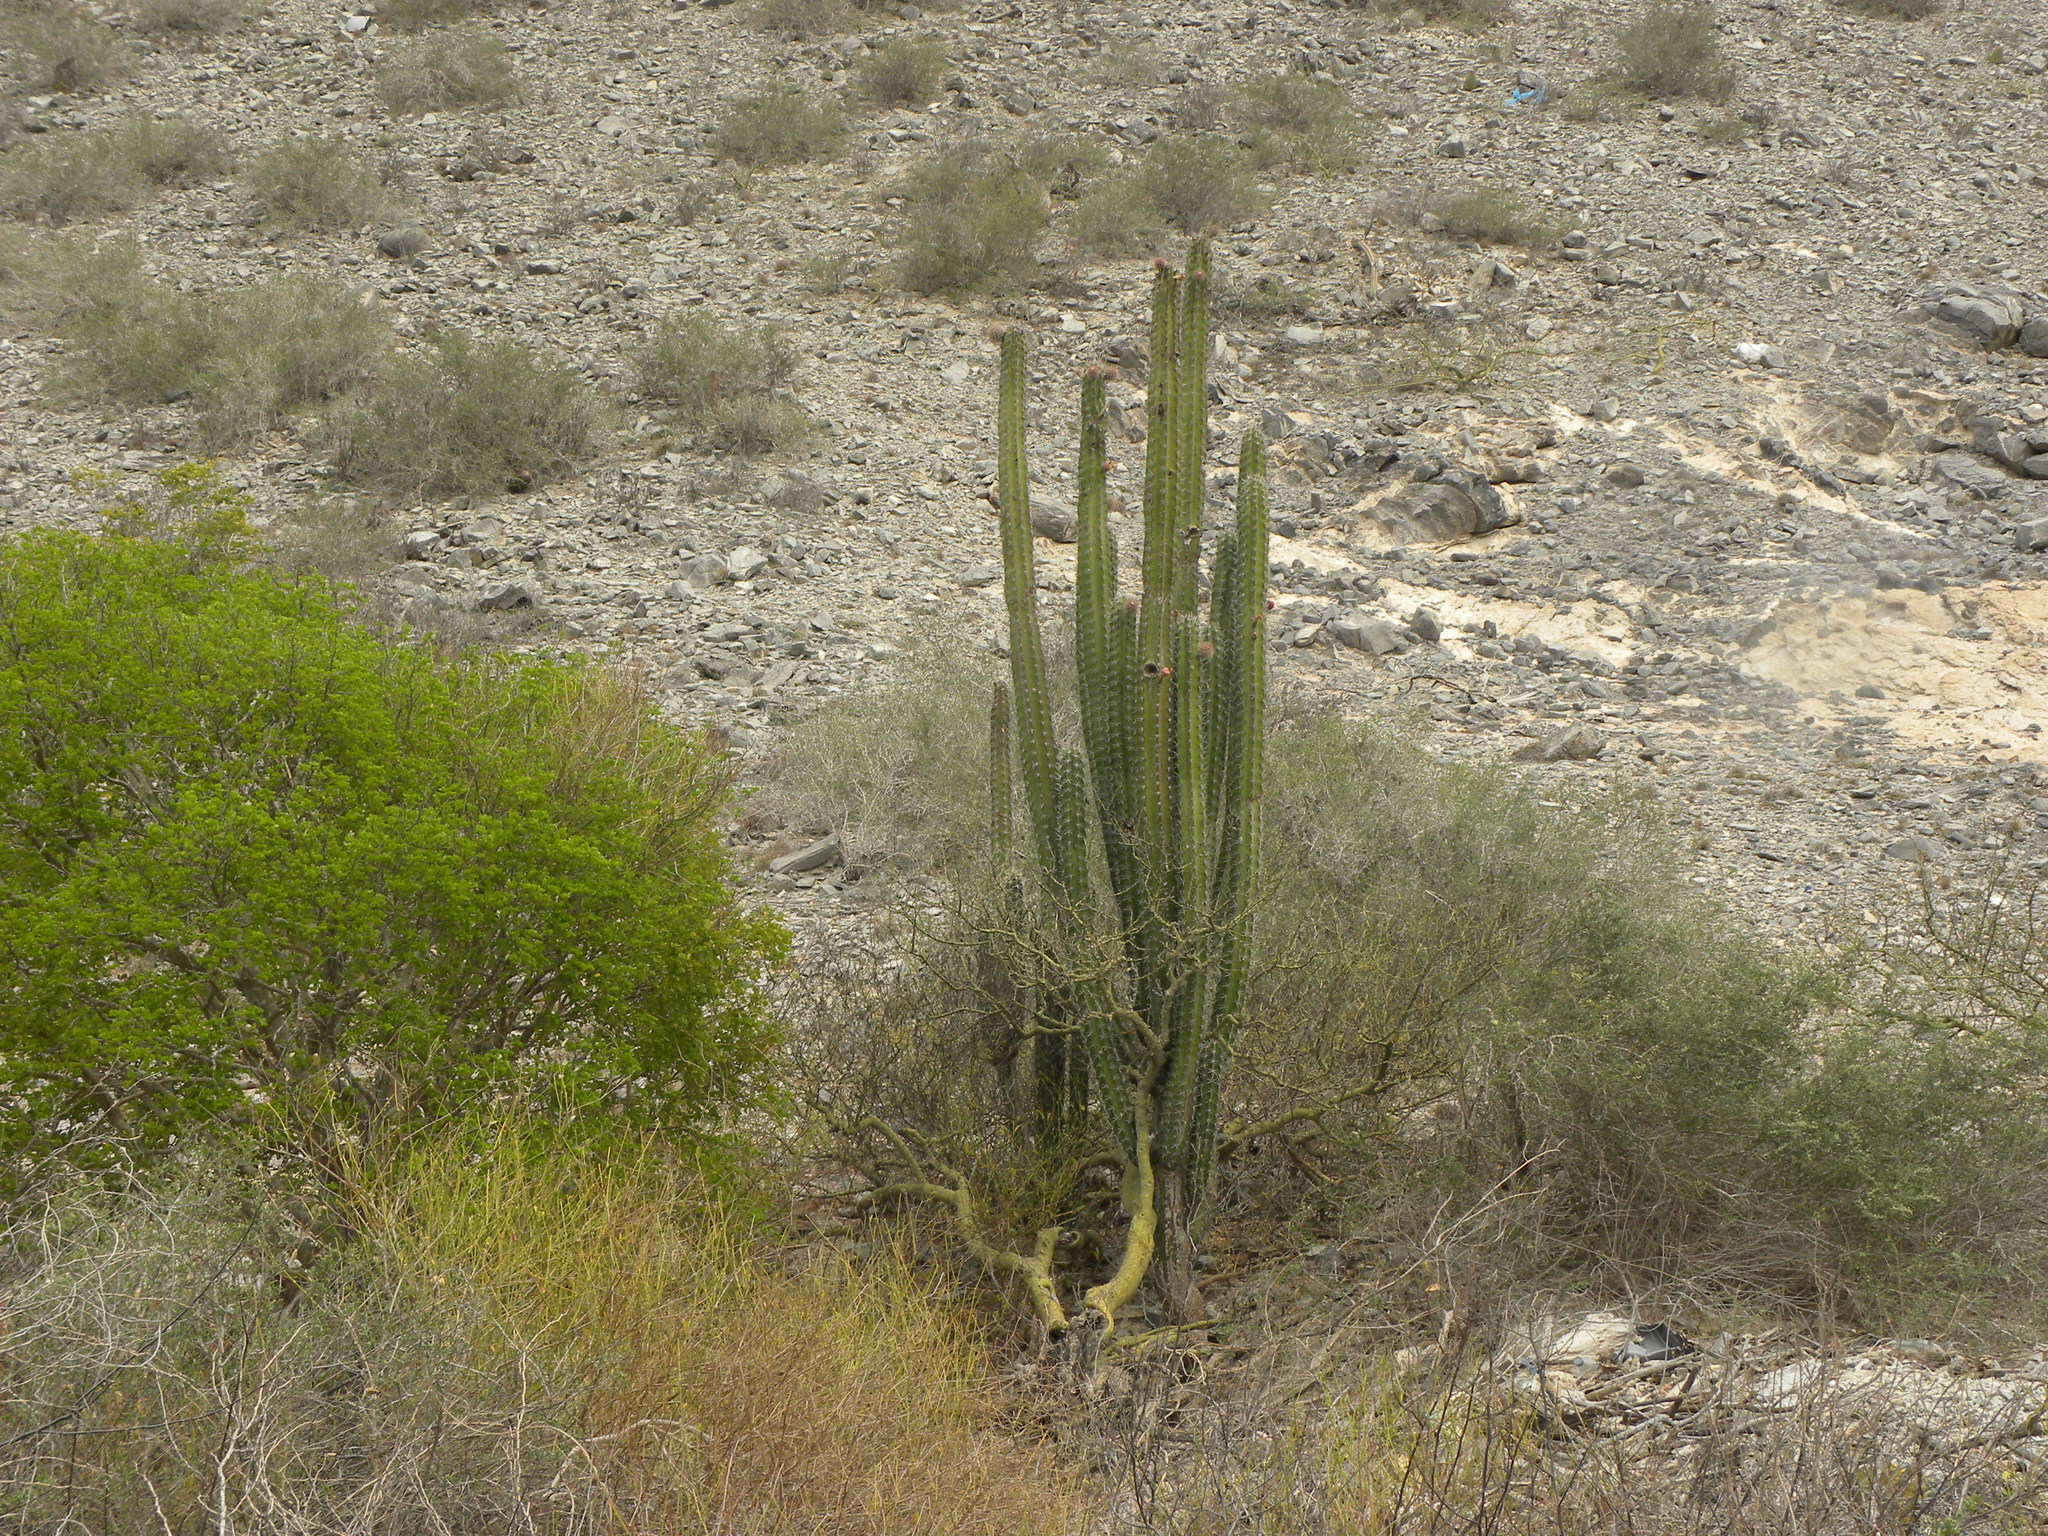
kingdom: Plantae
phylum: Tracheophyta
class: Magnoliopsida
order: Caryophyllales
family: Cactaceae
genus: Stenocereus
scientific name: Stenocereus griseus
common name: Tall candelabra cactus
